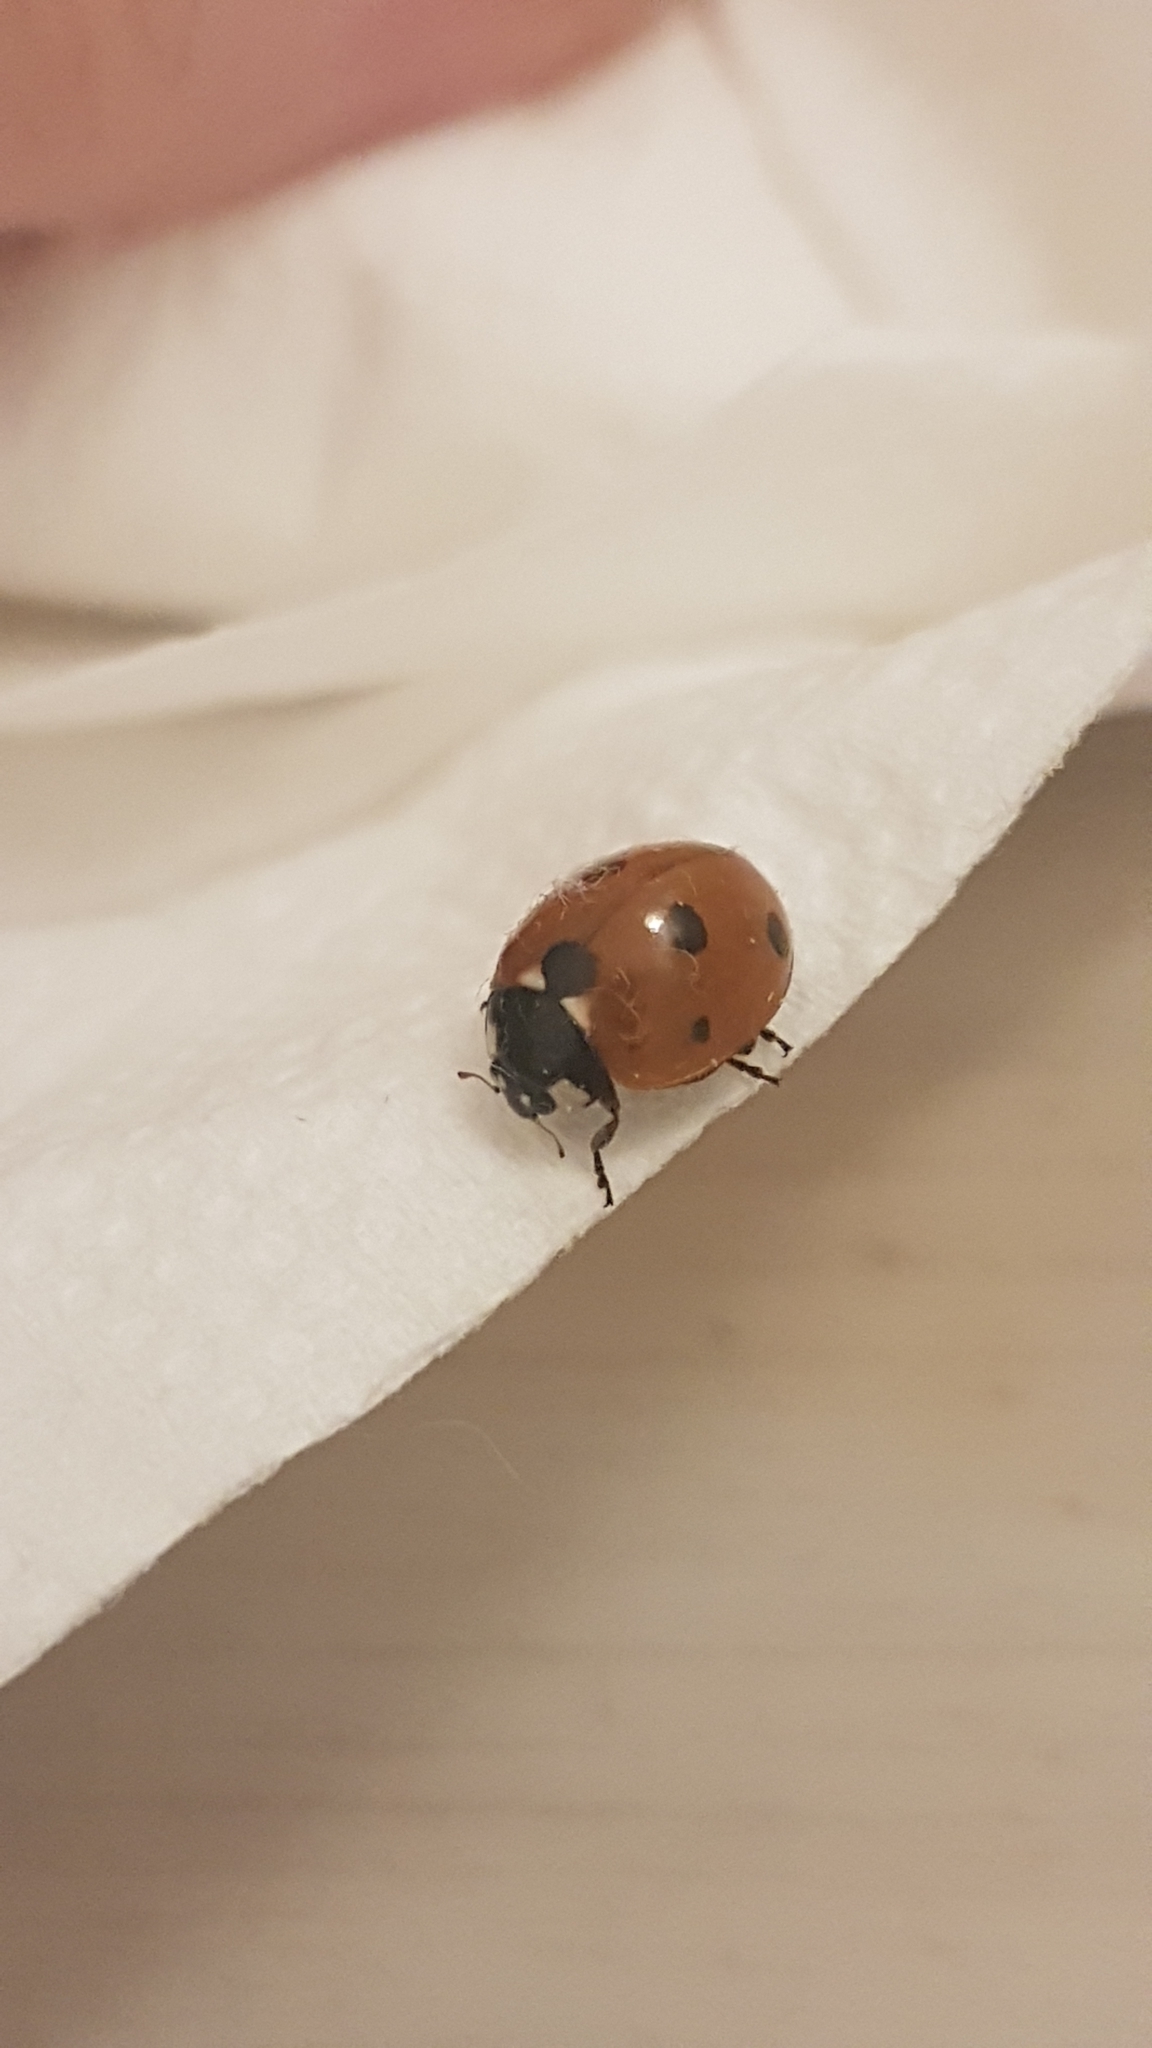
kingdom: Animalia
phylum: Arthropoda
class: Insecta
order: Coleoptera
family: Coccinellidae
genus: Coccinella
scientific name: Coccinella septempunctata
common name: Sevenspotted lady beetle
